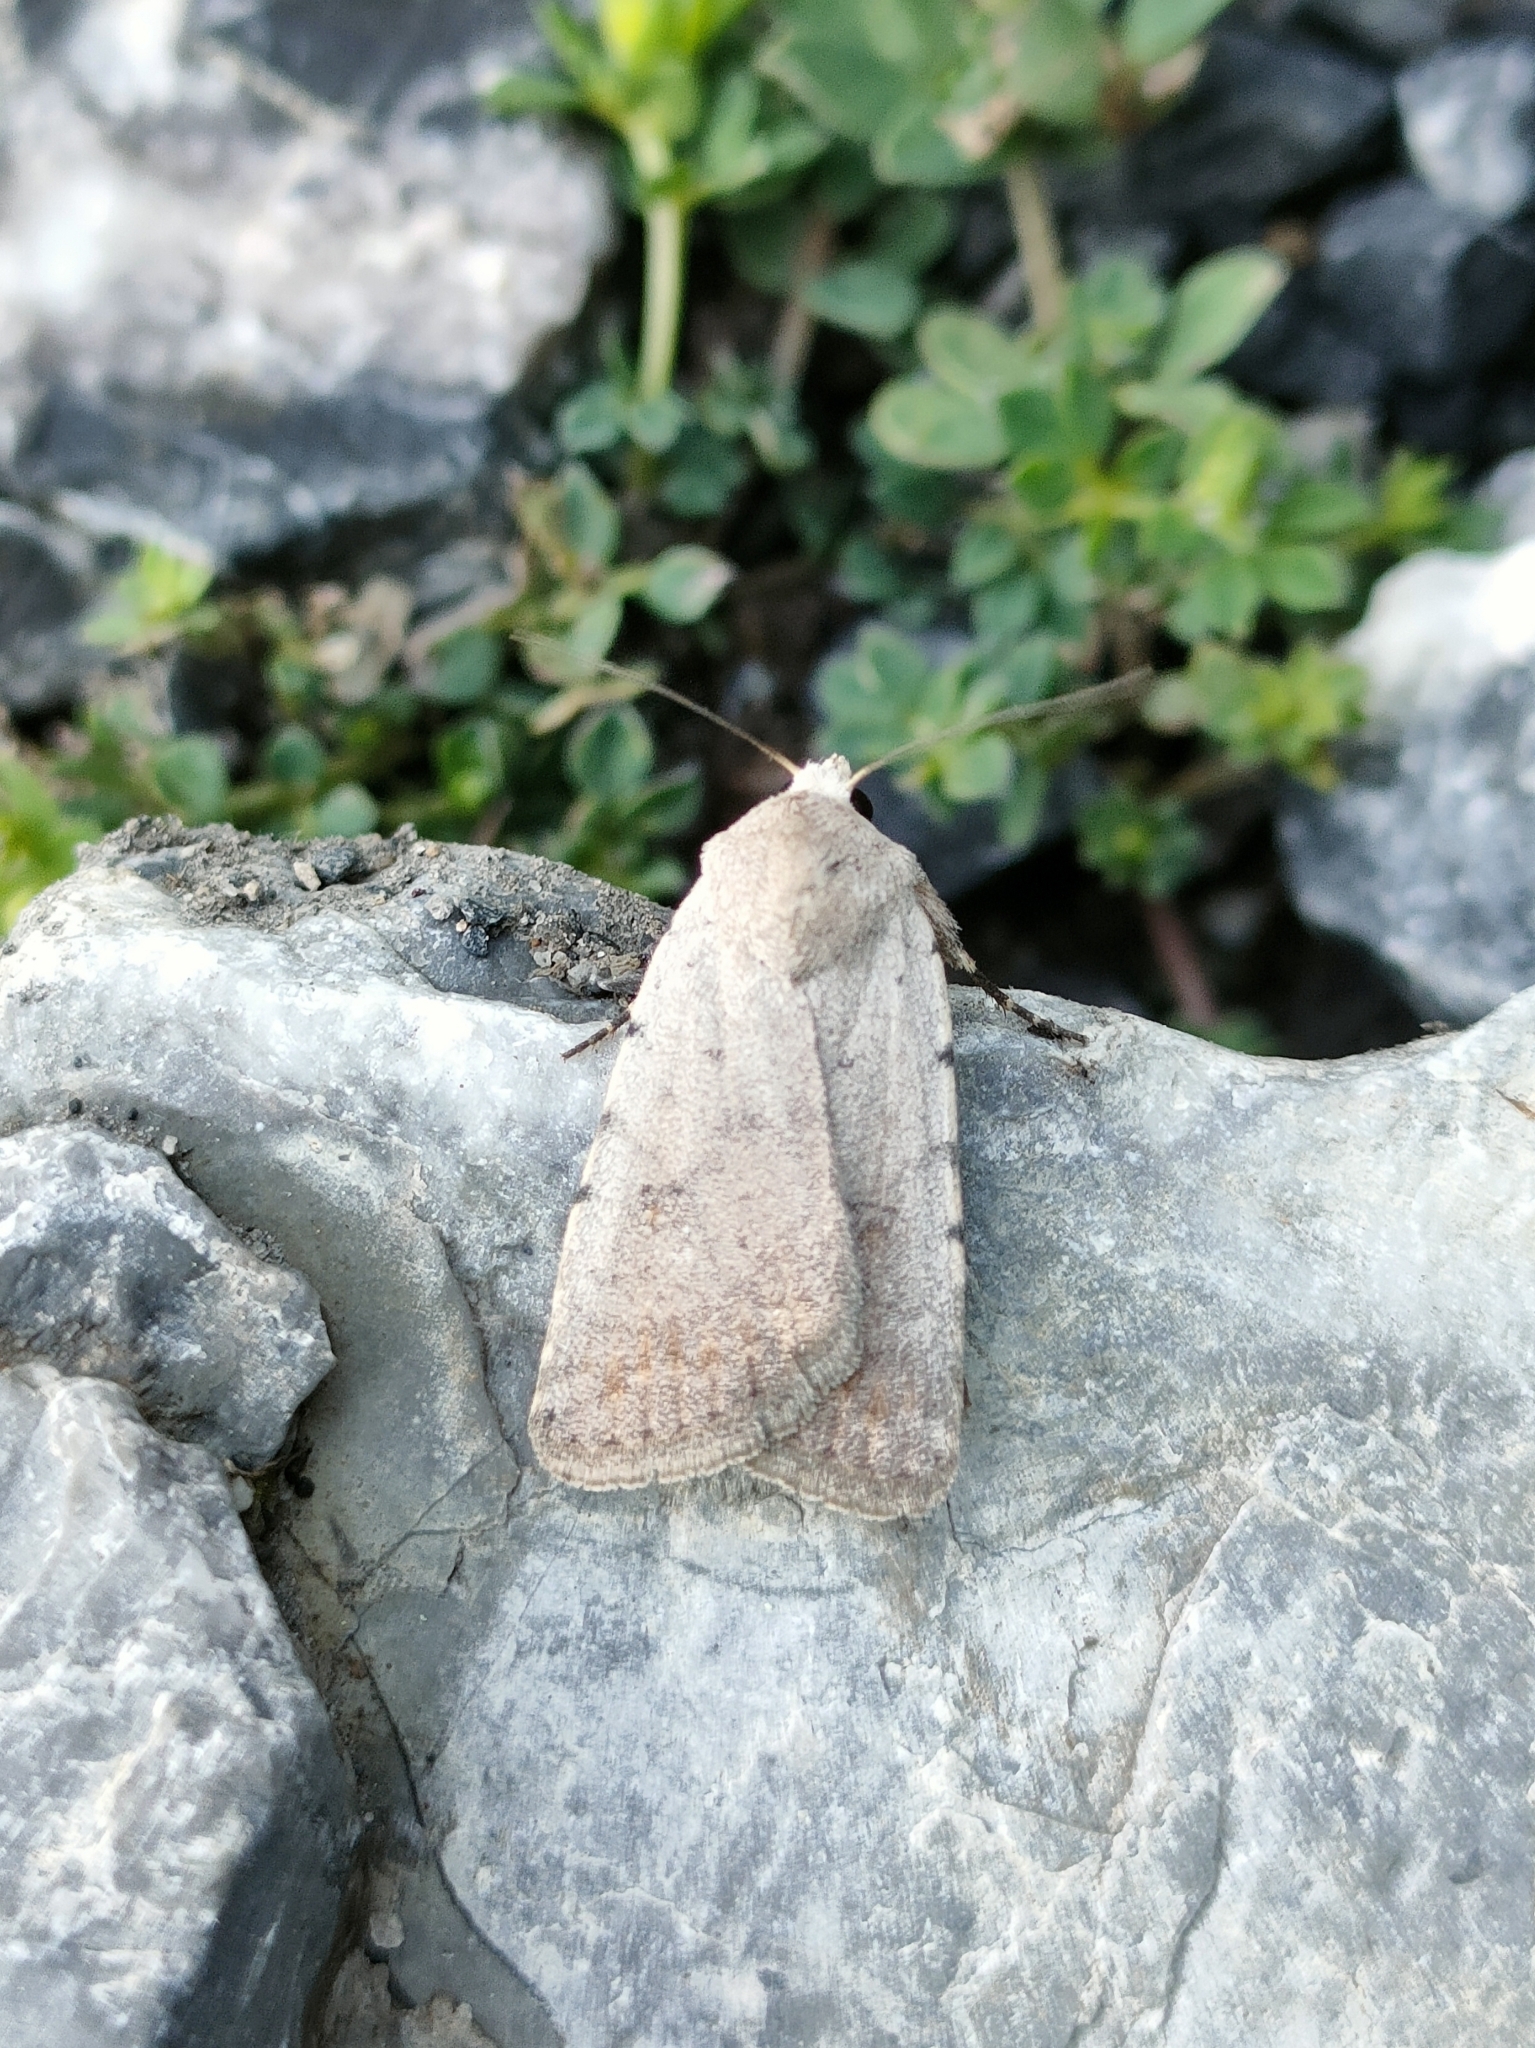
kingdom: Animalia
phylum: Arthropoda
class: Insecta
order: Lepidoptera
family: Noctuidae
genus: Caradrina
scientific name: Caradrina selini
